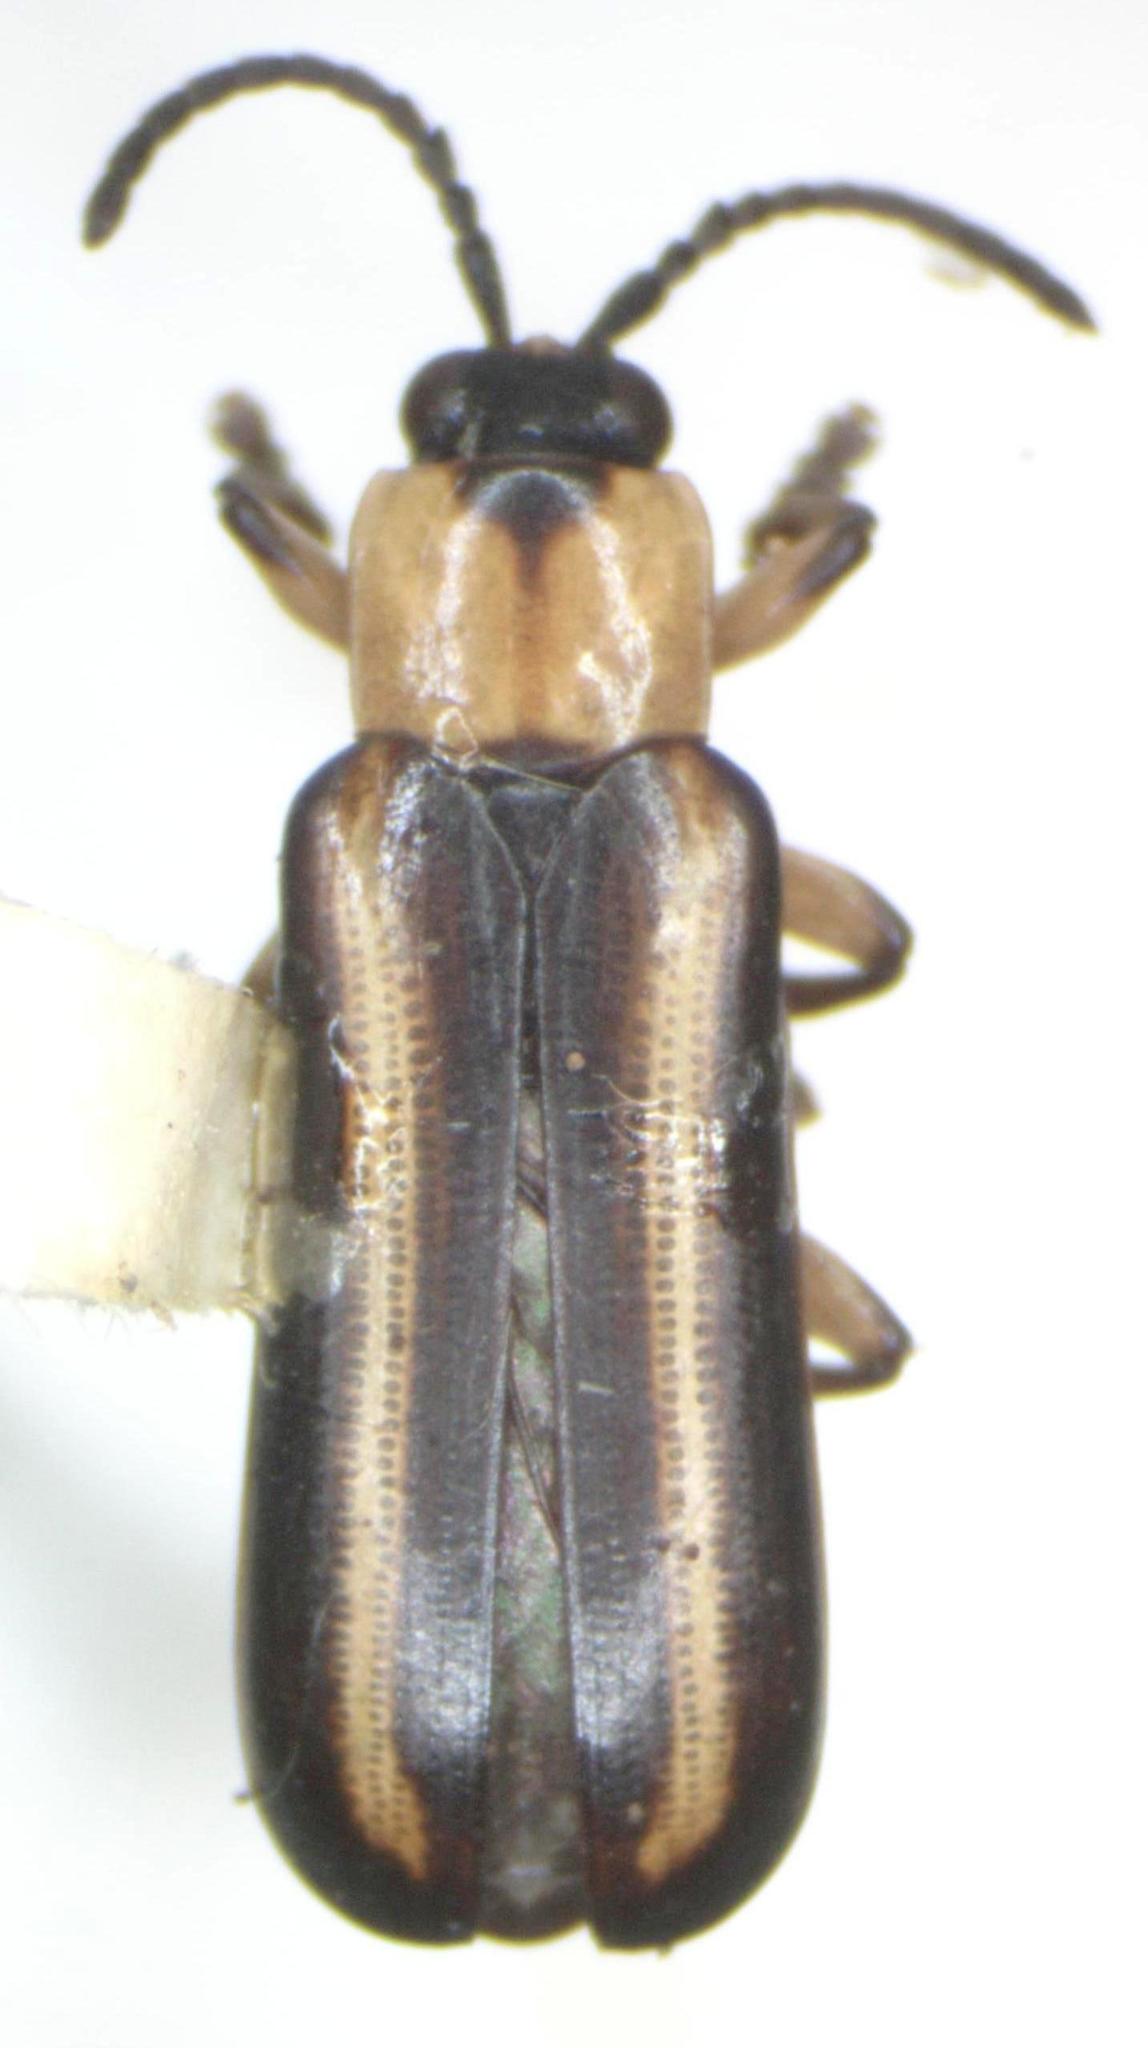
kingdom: Animalia
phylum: Arthropoda
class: Insecta
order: Coleoptera
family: Chrysomelidae
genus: Cephaloleia
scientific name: Cephaloleia belti
